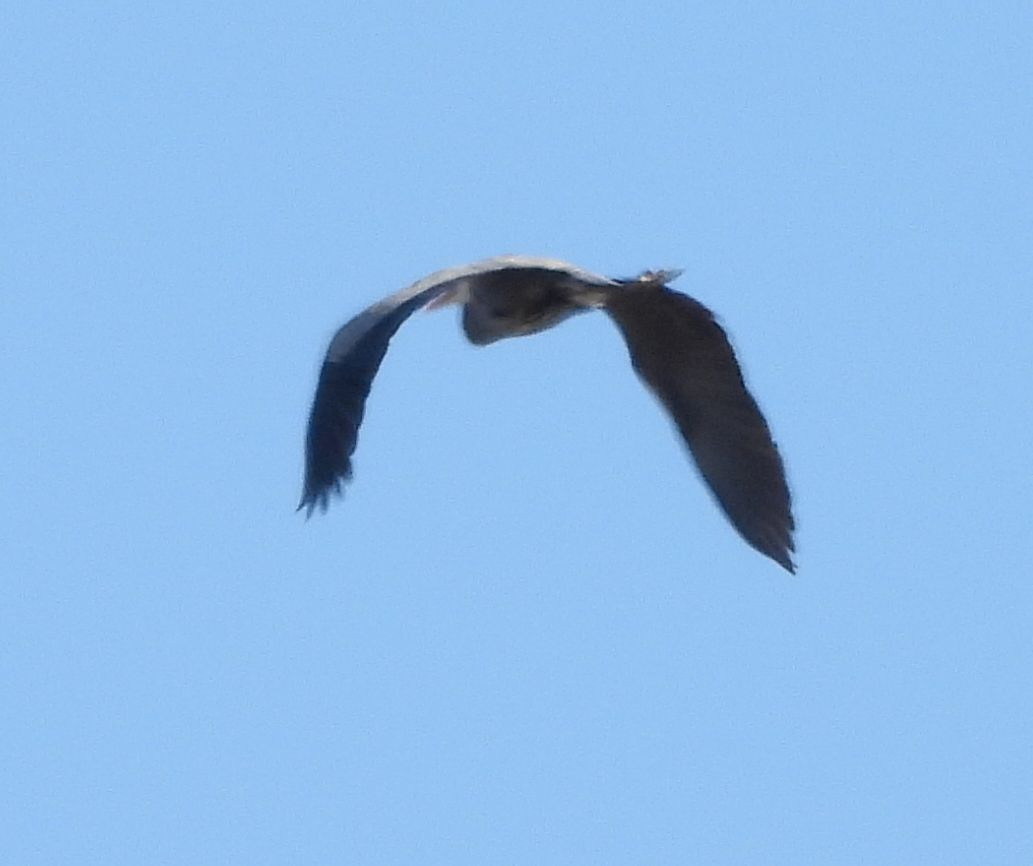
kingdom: Animalia
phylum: Chordata
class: Aves
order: Pelecaniformes
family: Ardeidae
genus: Ardea
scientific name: Ardea herodias
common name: Great blue heron
